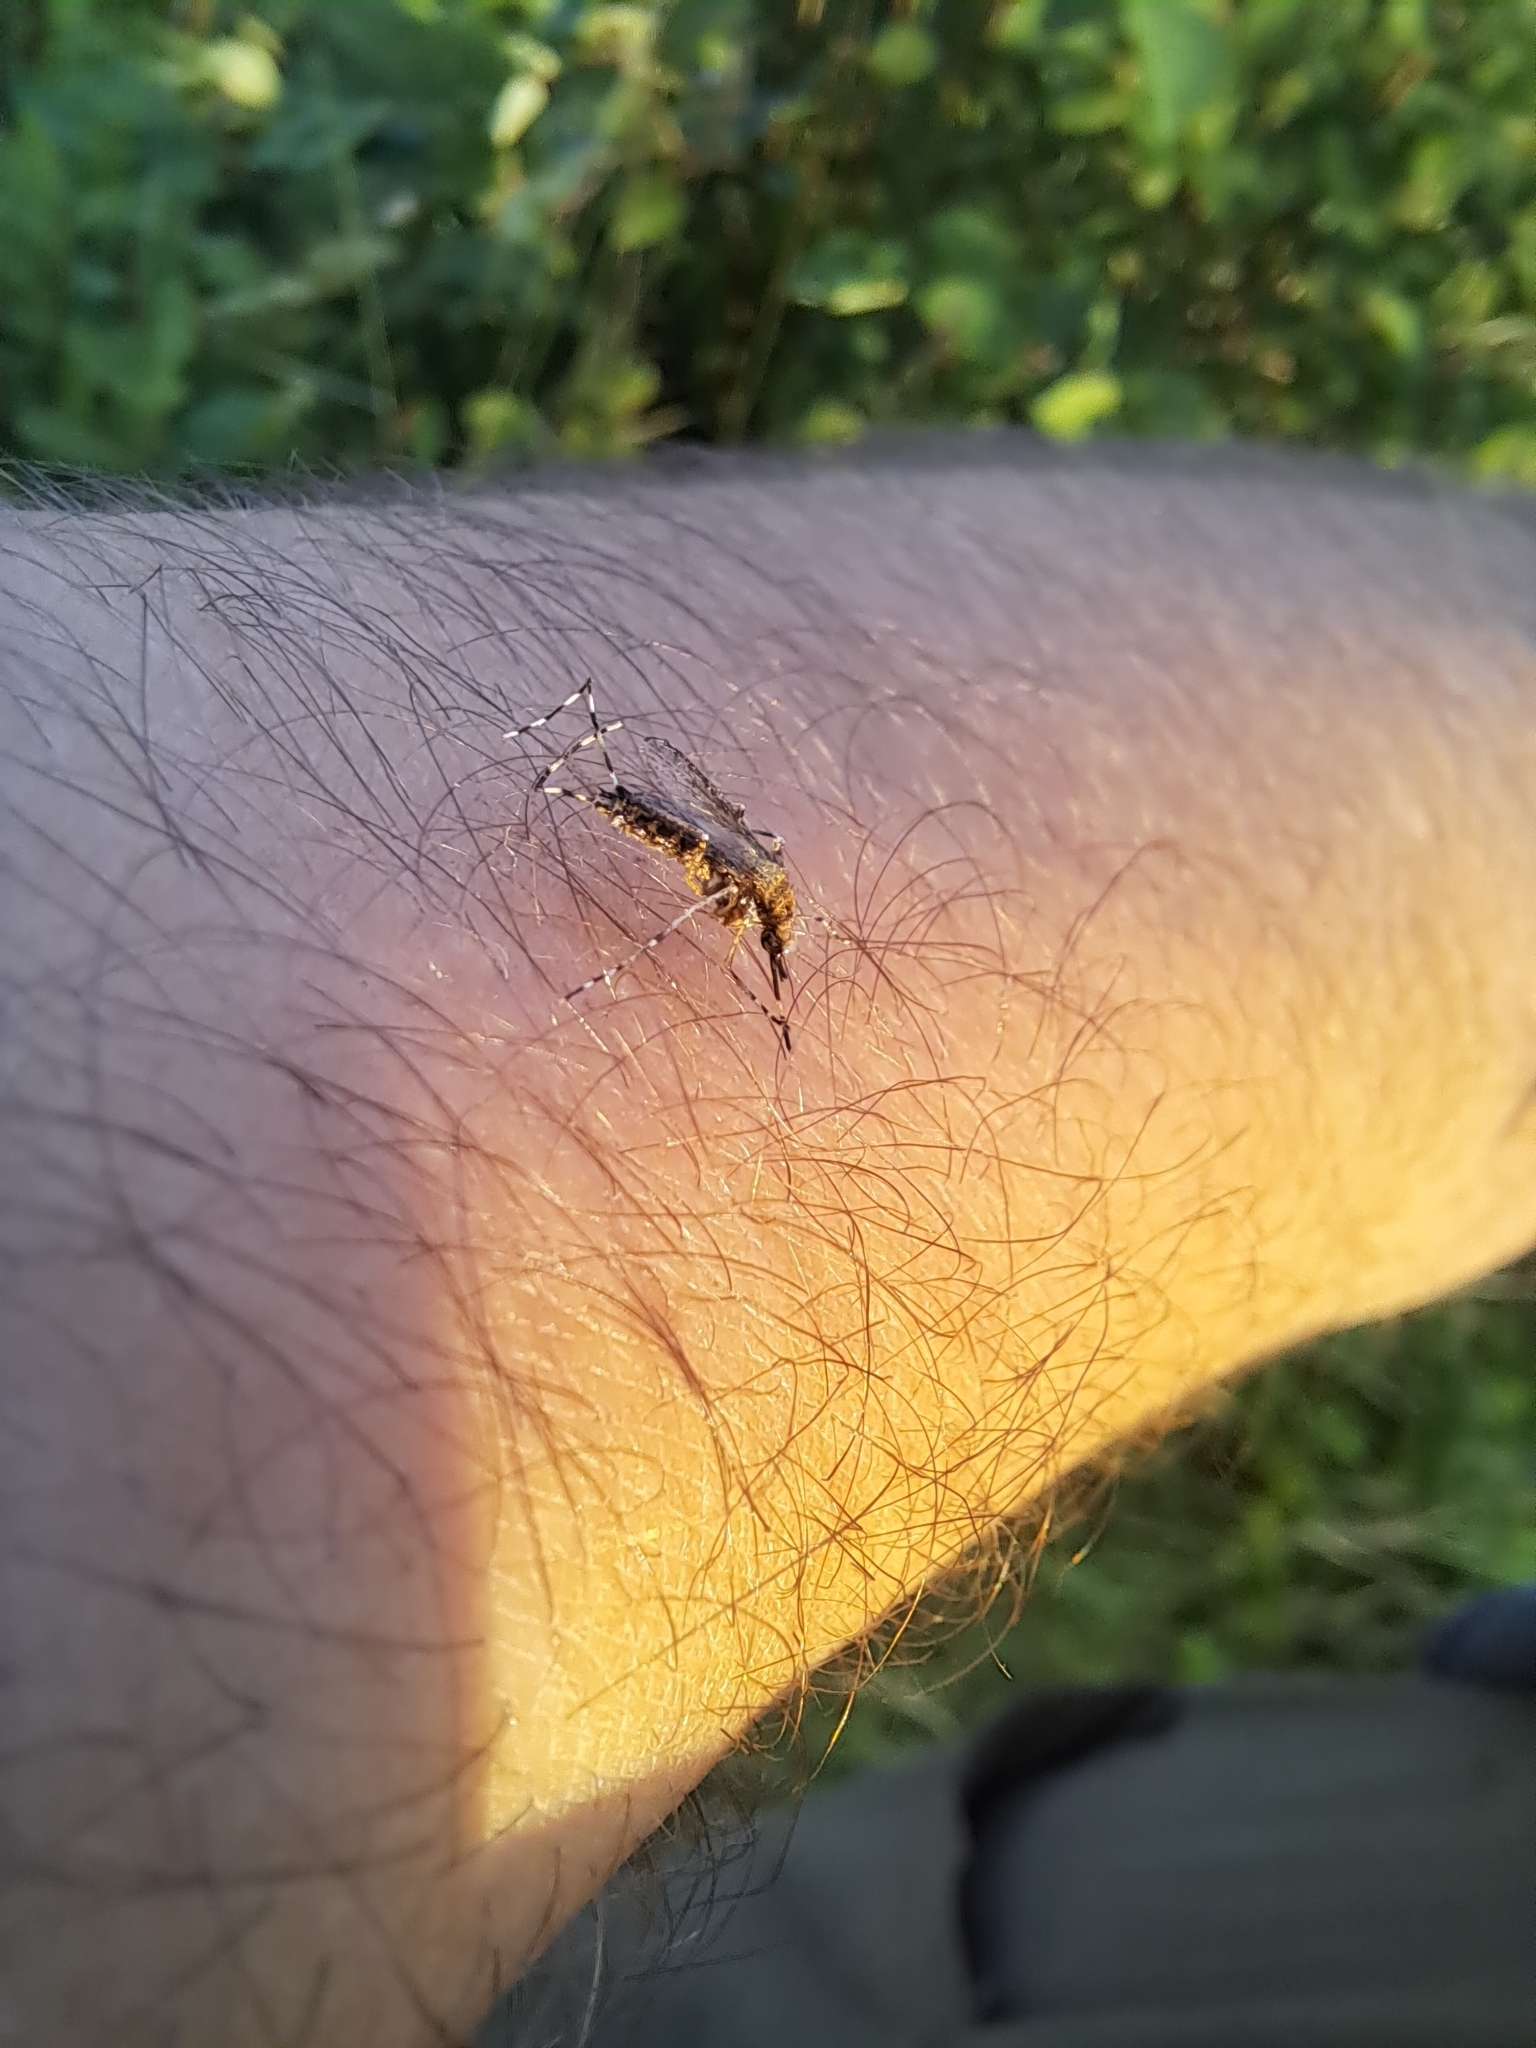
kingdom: Animalia
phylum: Arthropoda
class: Insecta
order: Diptera
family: Culicidae
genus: Aedes
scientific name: Aedes sollicitans
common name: Saltmarsh mosquito
